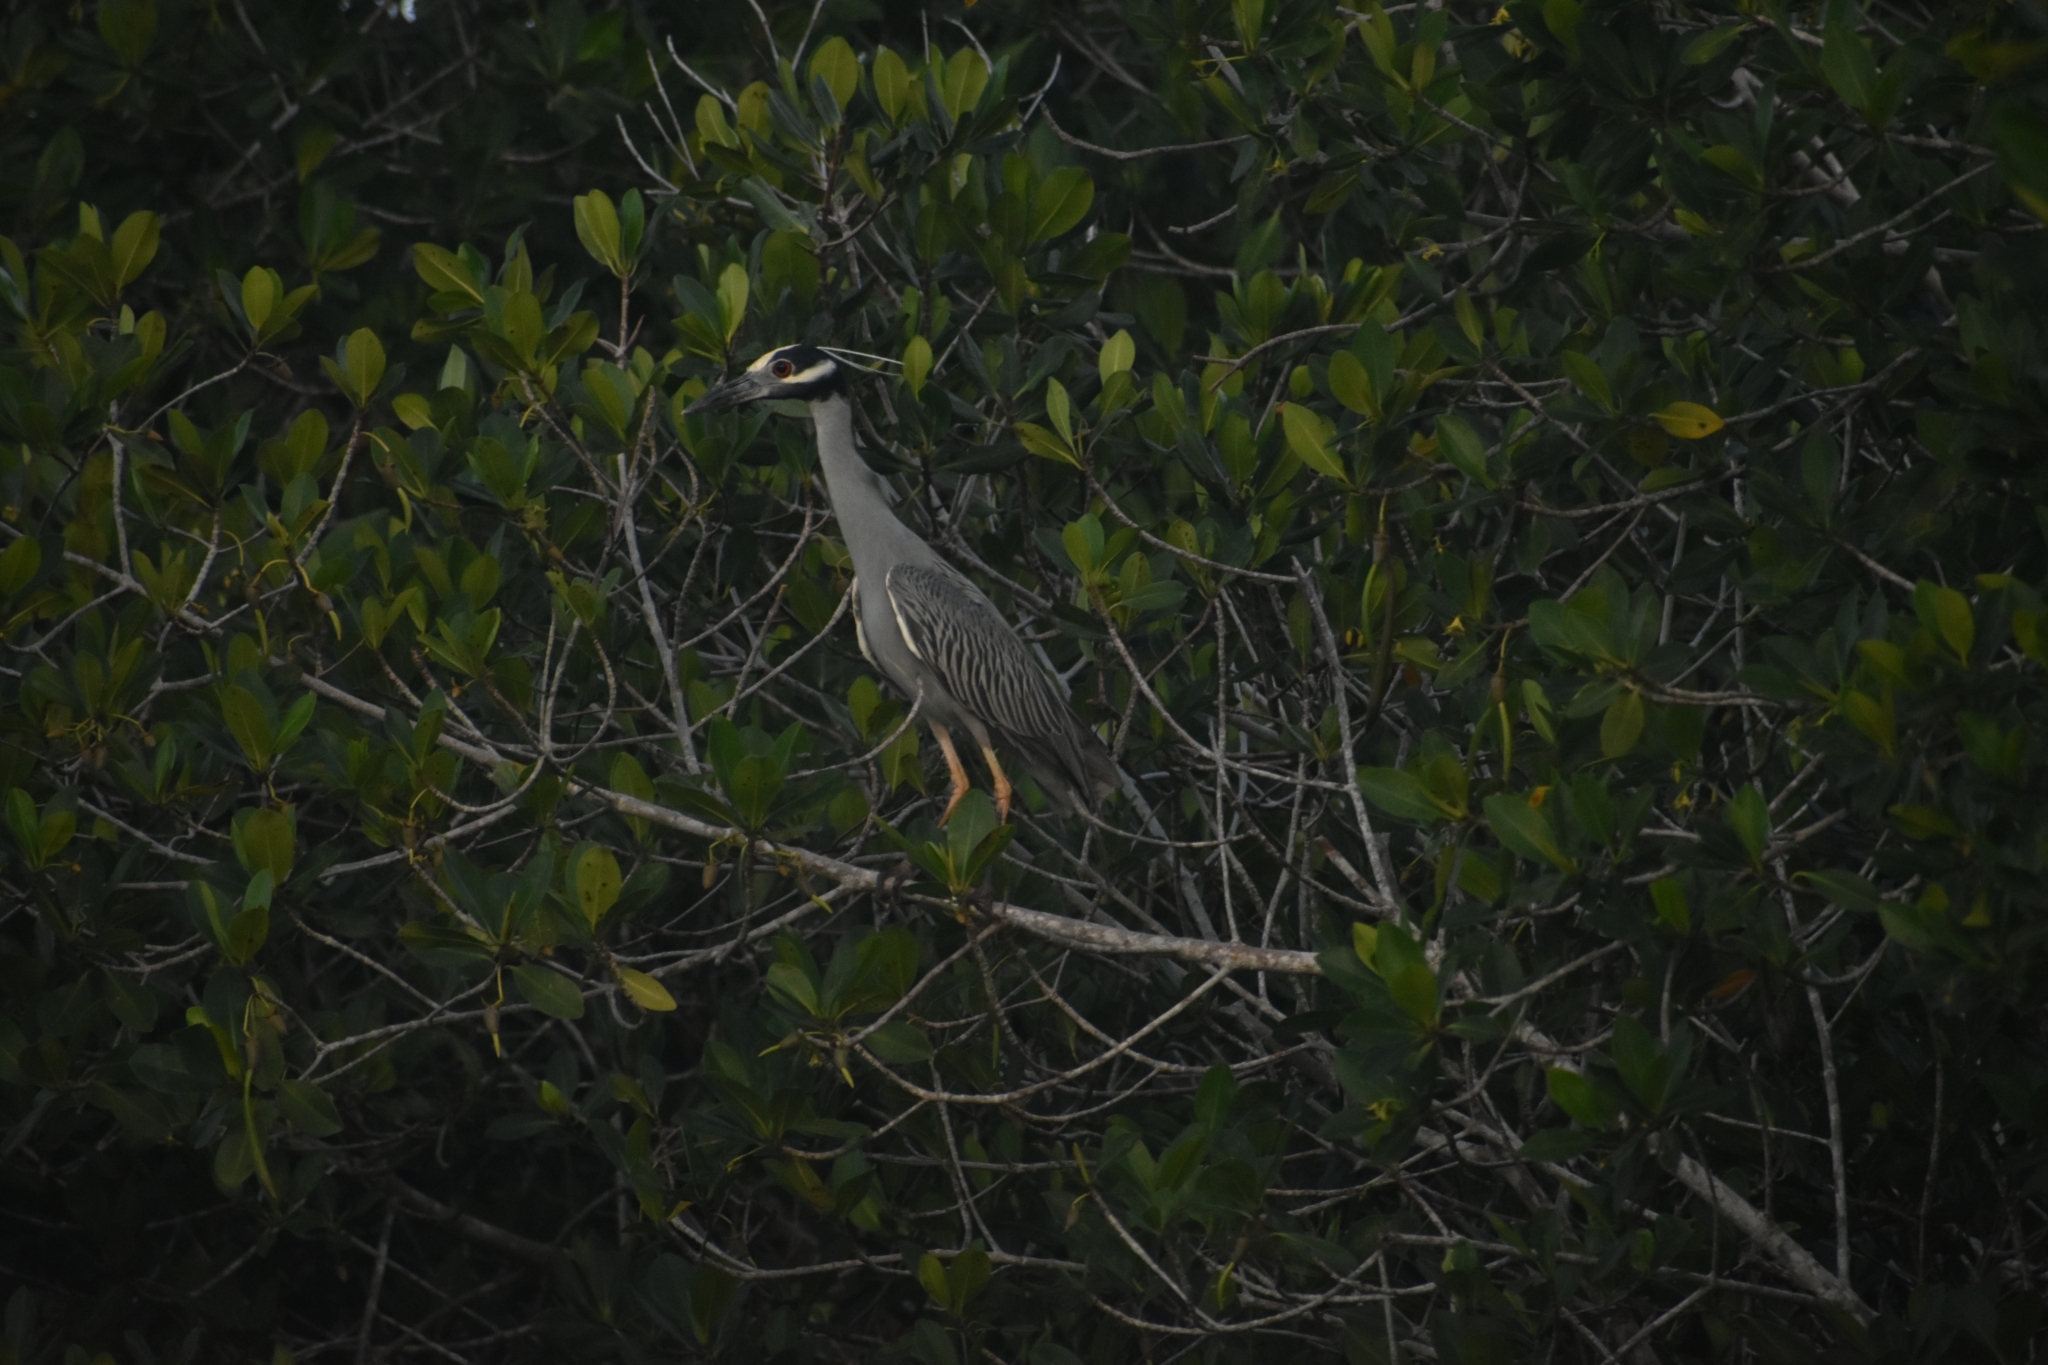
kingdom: Animalia
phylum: Chordata
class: Aves
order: Pelecaniformes
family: Ardeidae
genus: Nyctanassa
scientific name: Nyctanassa violacea
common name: Yellow-crowned night heron
